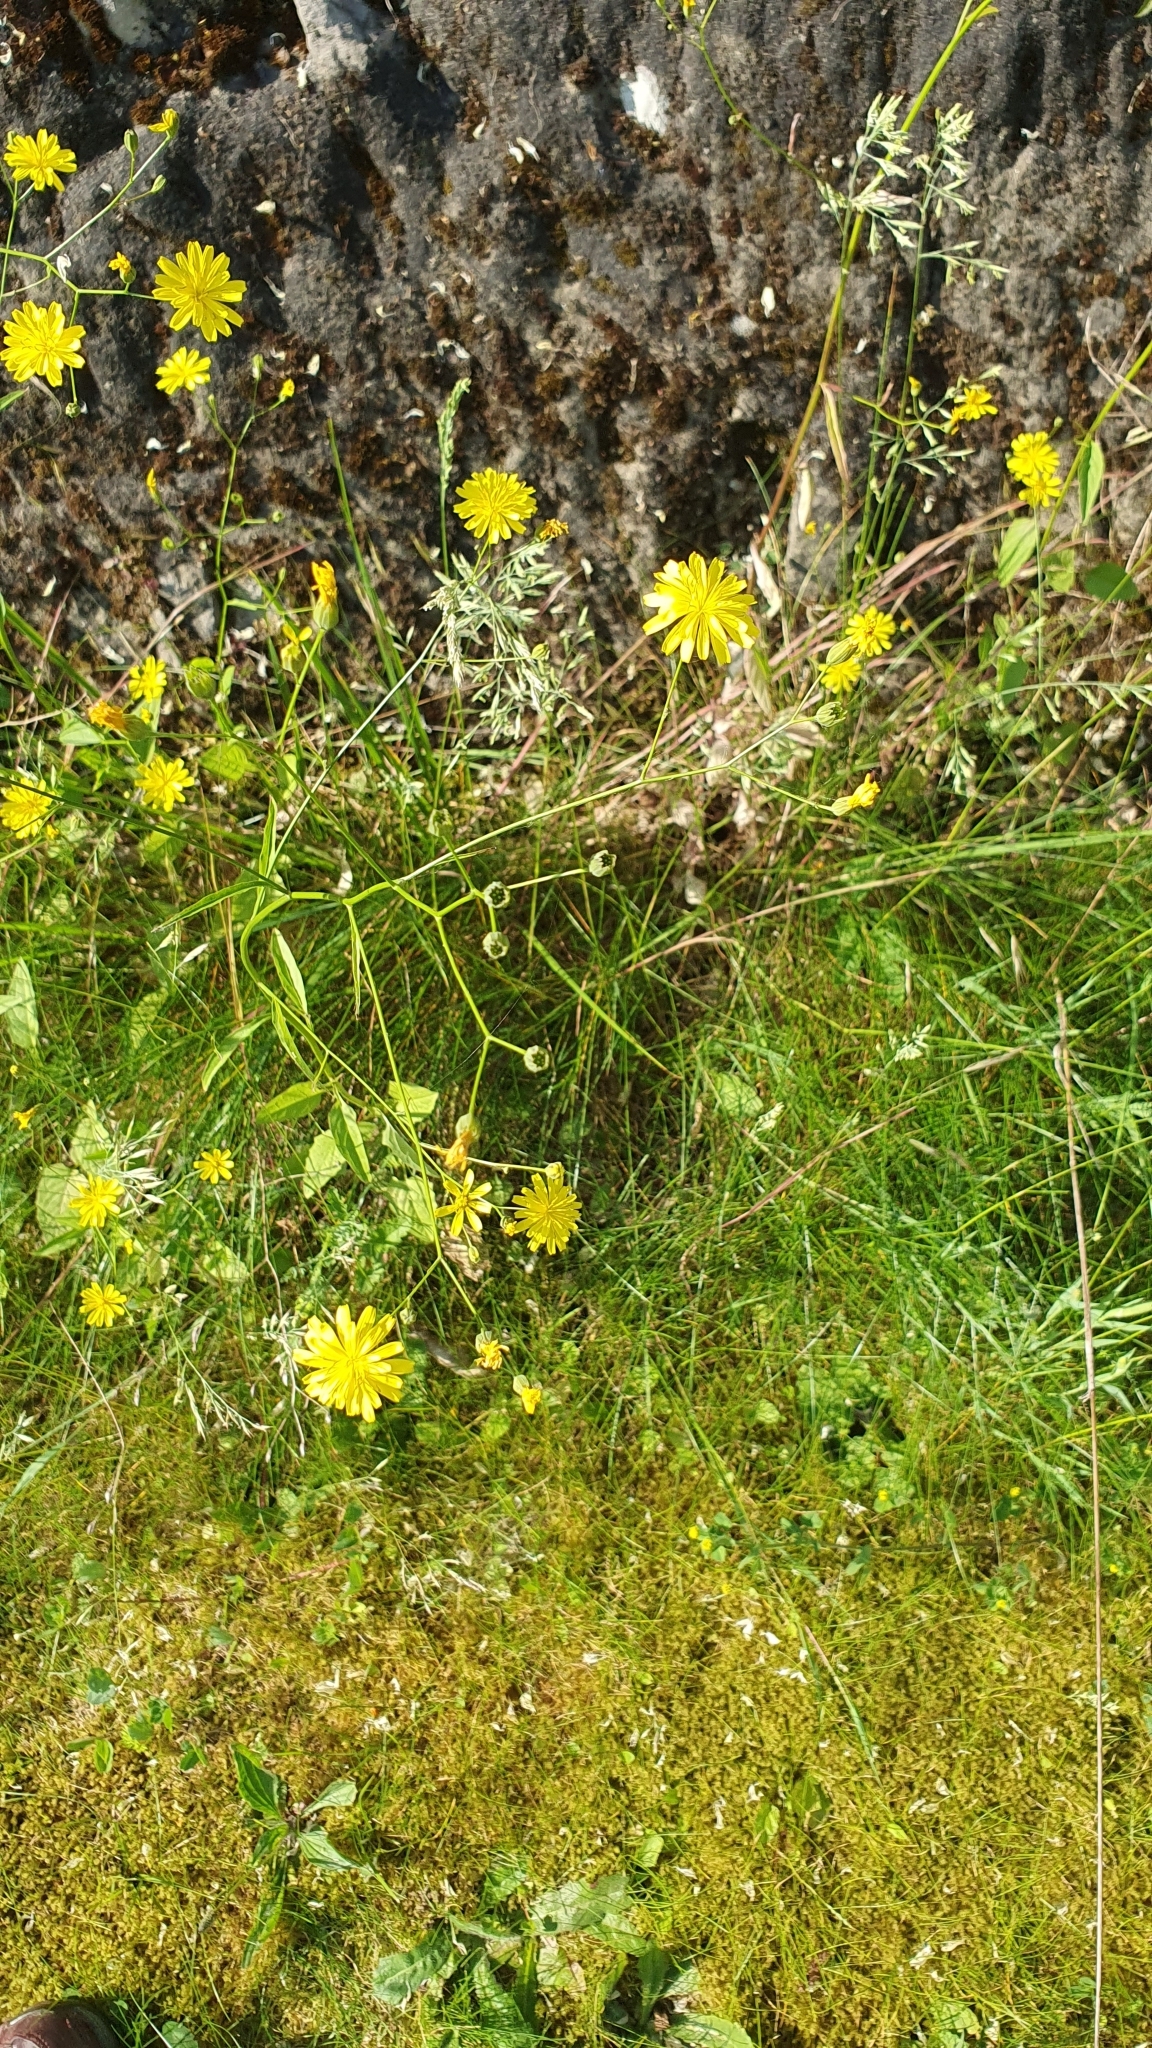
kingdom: Plantae
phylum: Tracheophyta
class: Magnoliopsida
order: Asterales
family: Asteraceae
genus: Lapsana
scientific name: Lapsana communis
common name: Nipplewort
